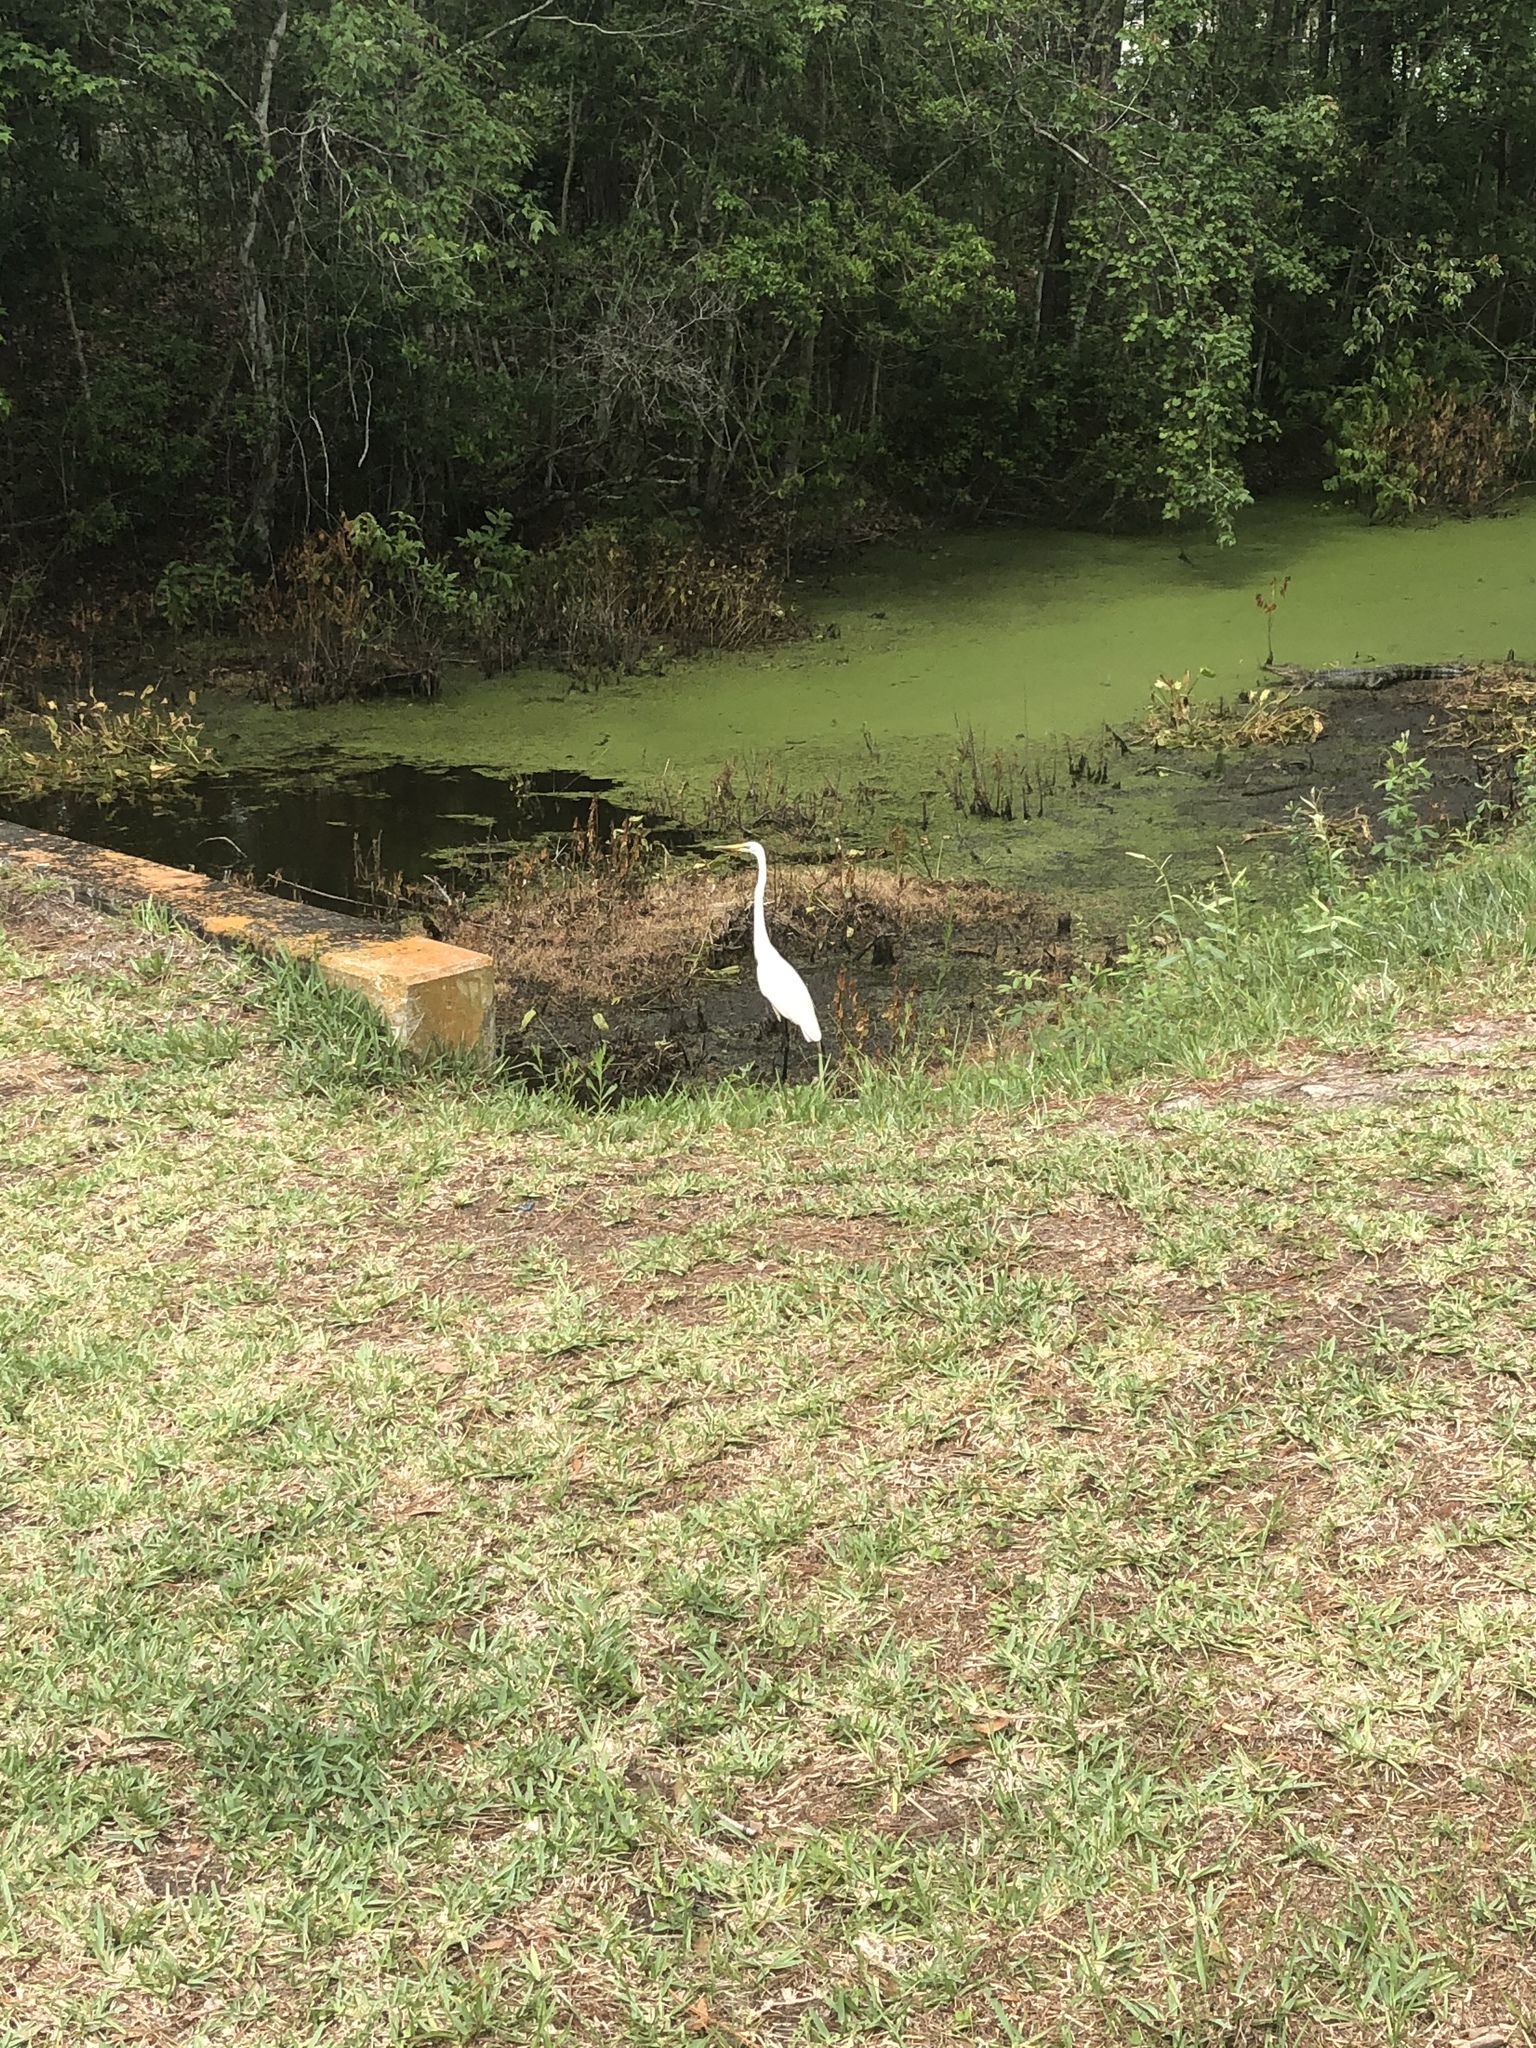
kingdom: Animalia
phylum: Chordata
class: Aves
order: Pelecaniformes
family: Ardeidae
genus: Ardea
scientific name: Ardea alba
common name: Great egret
